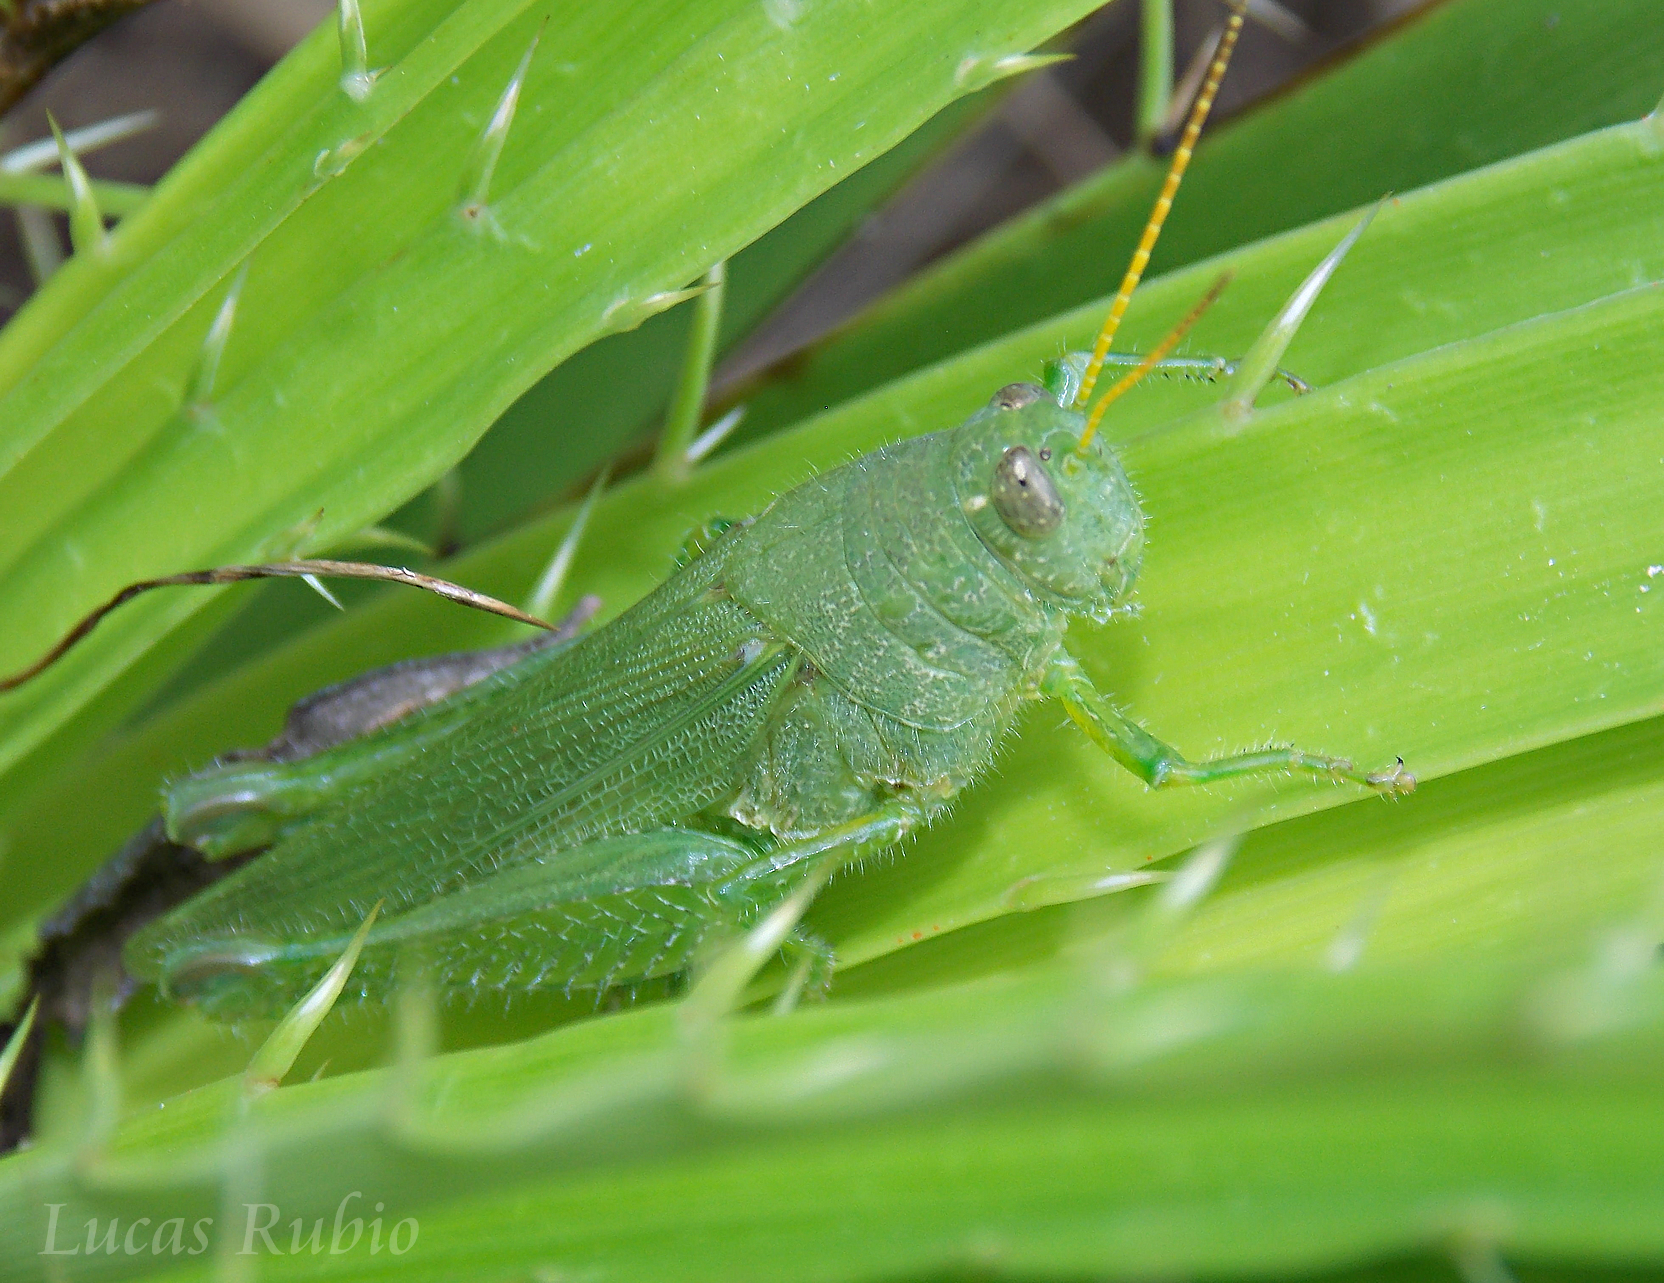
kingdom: Animalia
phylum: Arthropoda
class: Insecta
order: Orthoptera
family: Acrididae
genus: Atrachelacris
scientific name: Atrachelacris
